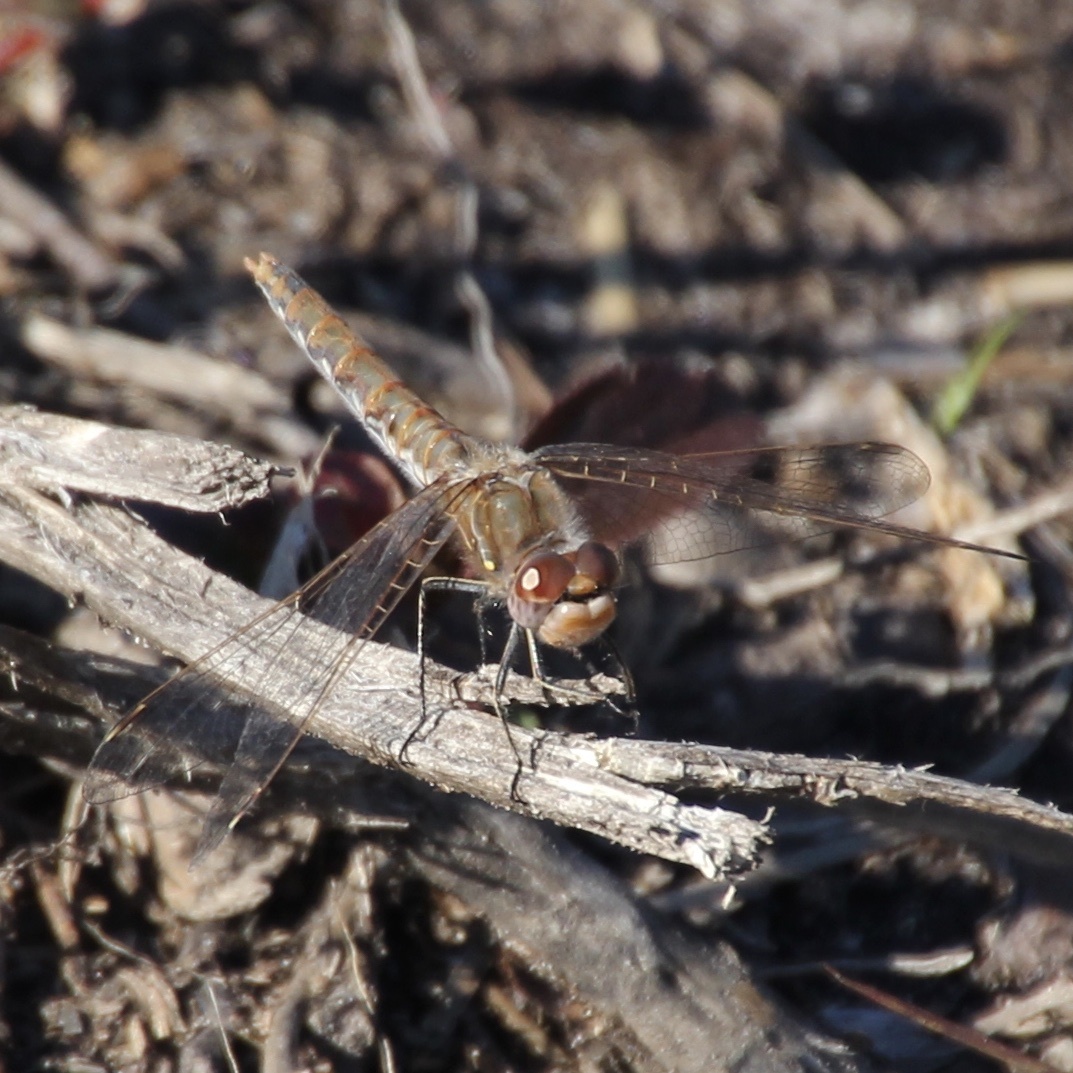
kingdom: Animalia
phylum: Arthropoda
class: Insecta
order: Odonata
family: Libellulidae
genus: Sympetrum
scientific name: Sympetrum corruptum
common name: Variegated meadowhawk
